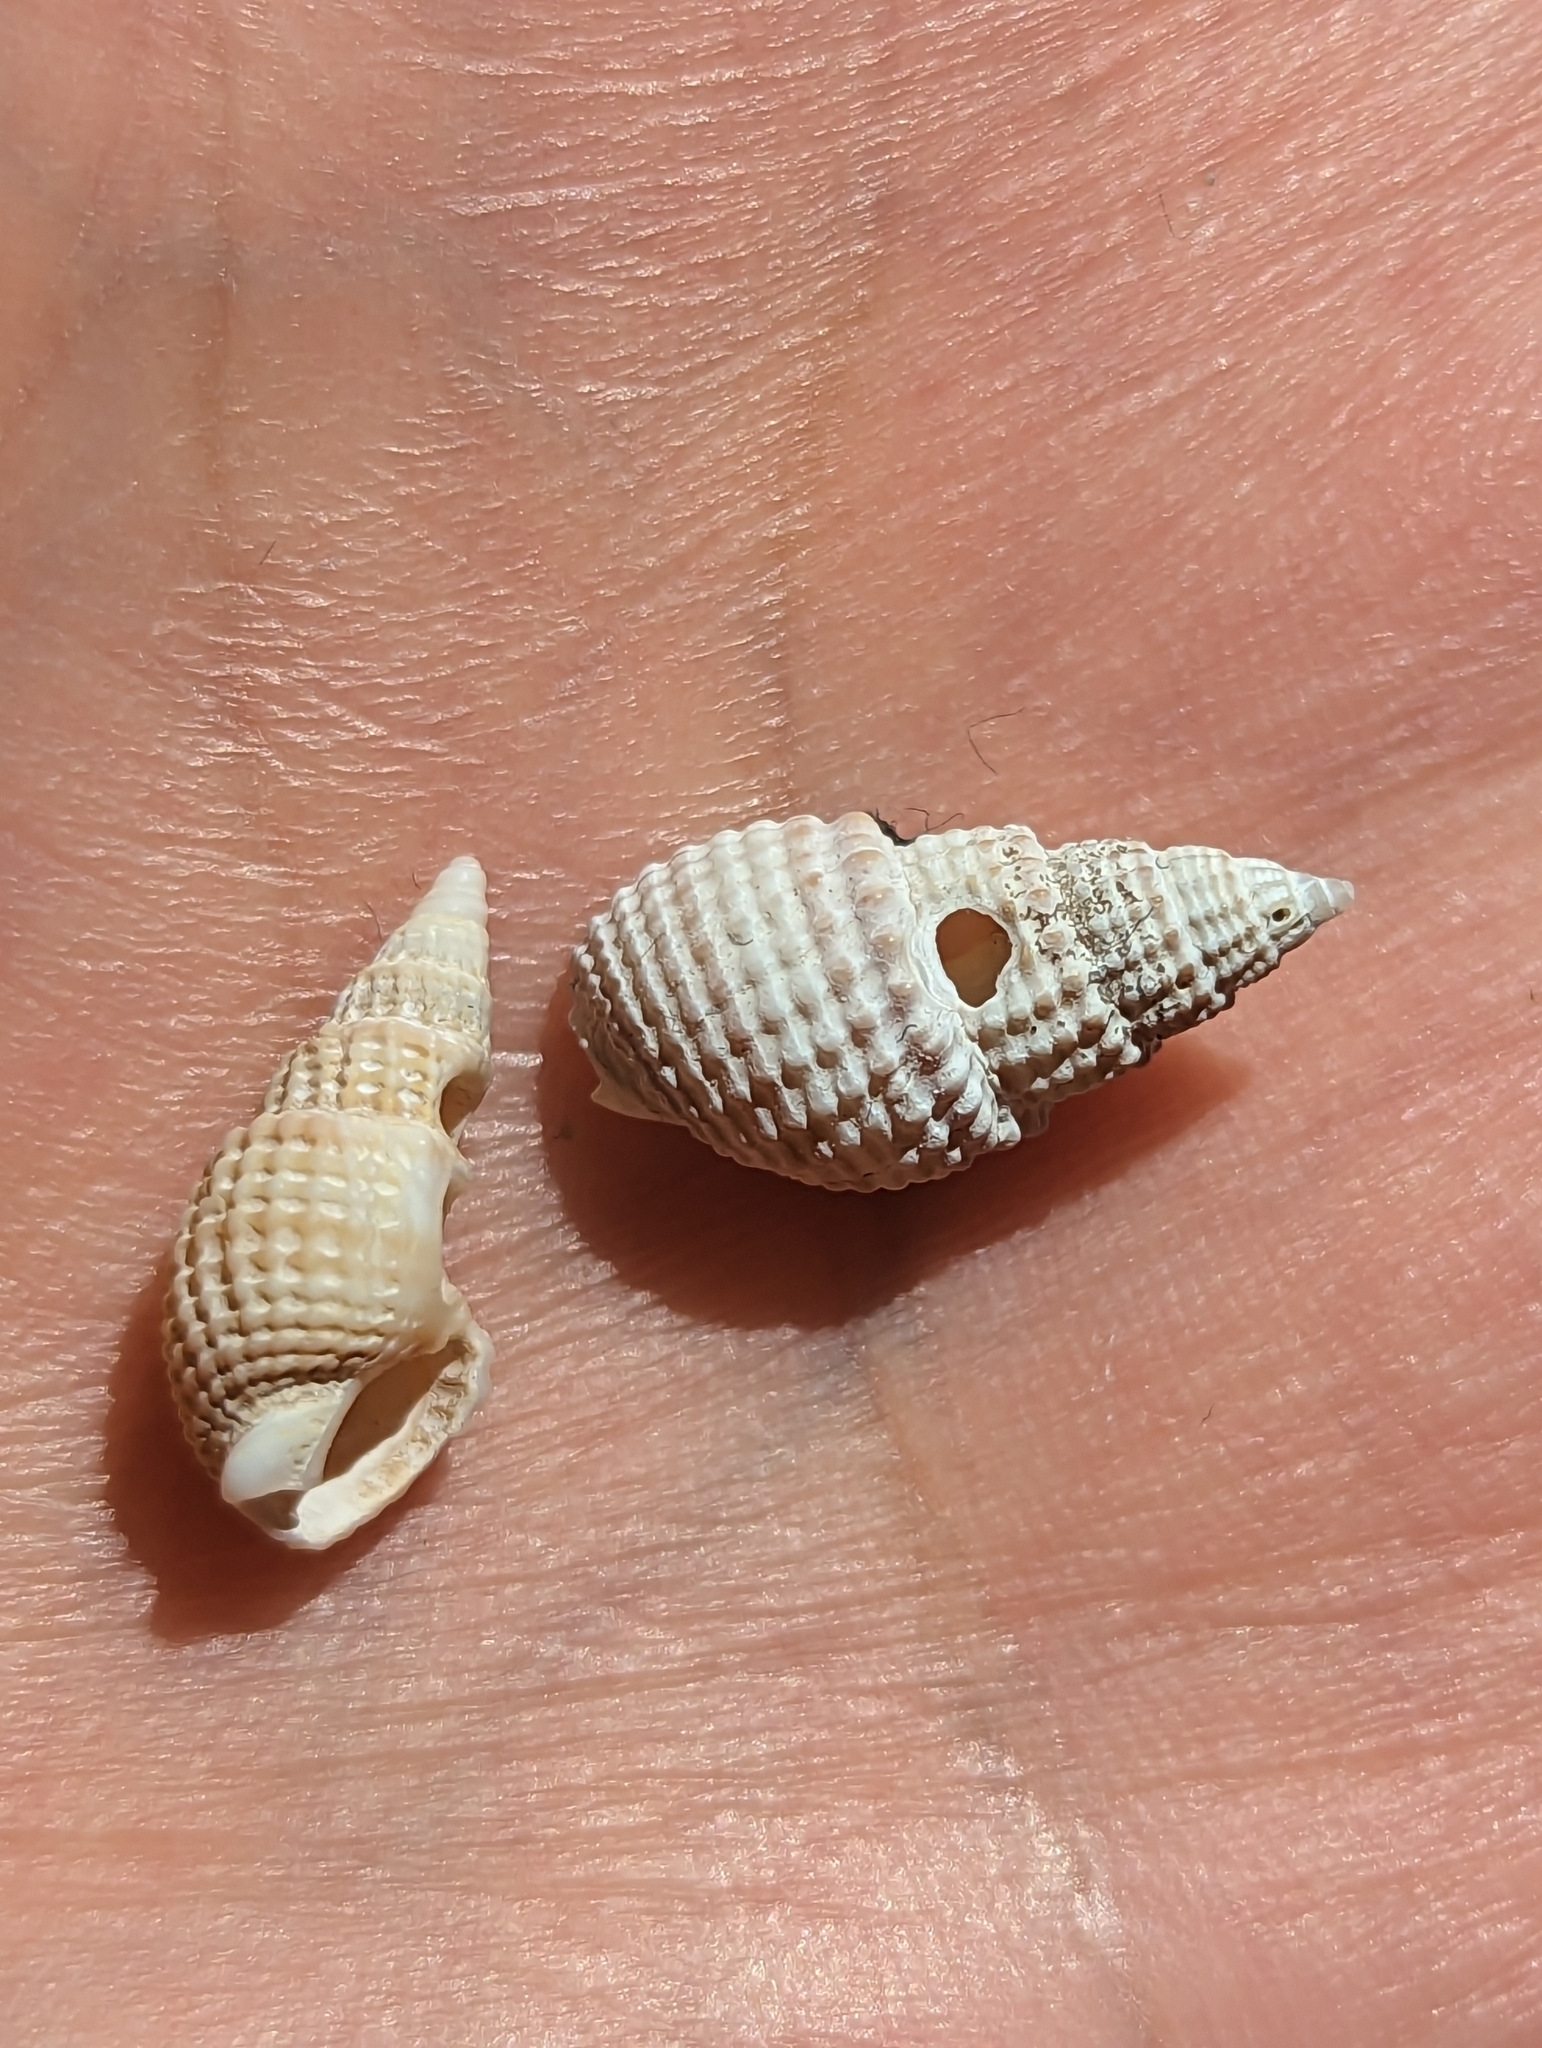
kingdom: Animalia
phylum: Mollusca
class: Gastropoda
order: Neogastropoda
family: Nassariidae
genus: Ilyanassa
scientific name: Ilyanassa trivittata
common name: Three-line mudsnail
